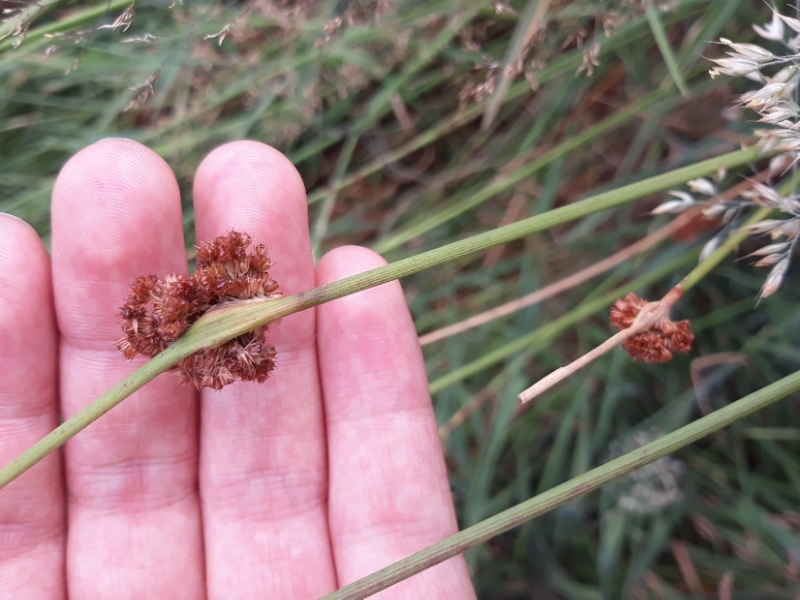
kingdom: Plantae
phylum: Tracheophyta
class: Liliopsida
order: Poales
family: Juncaceae
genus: Juncus
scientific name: Juncus conglomeratus
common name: Compact rush
